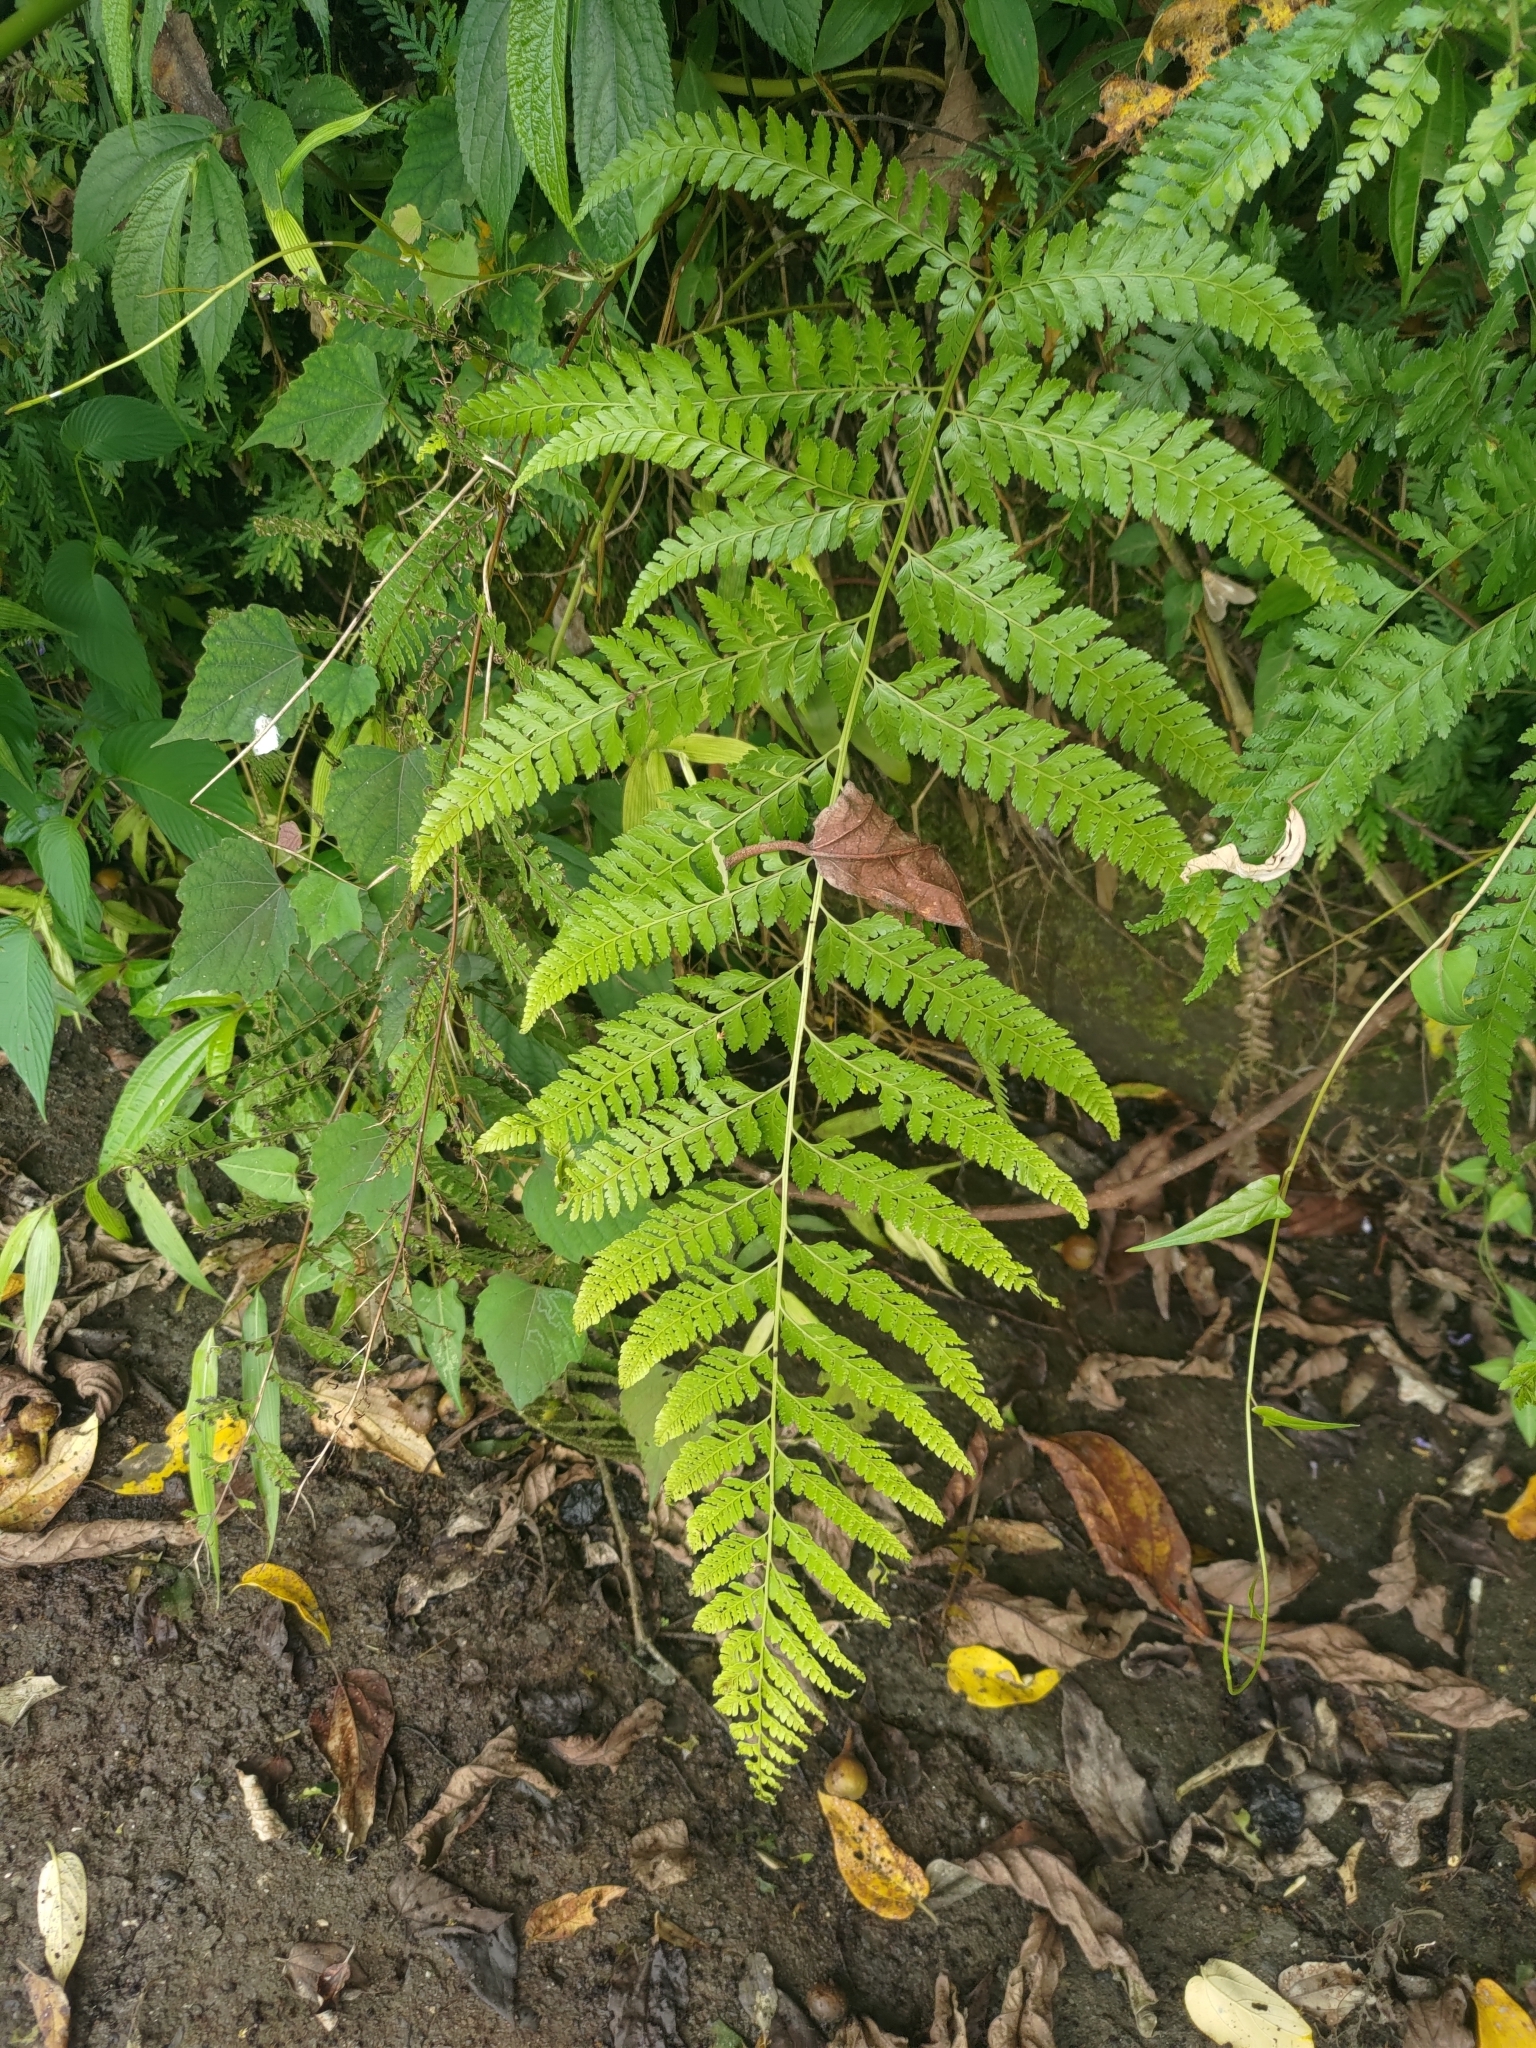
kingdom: Plantae
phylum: Tracheophyta
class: Polypodiopsida
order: Polypodiales
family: Dennstaedtiaceae
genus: Microlepia
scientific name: Microlepia strigosa
